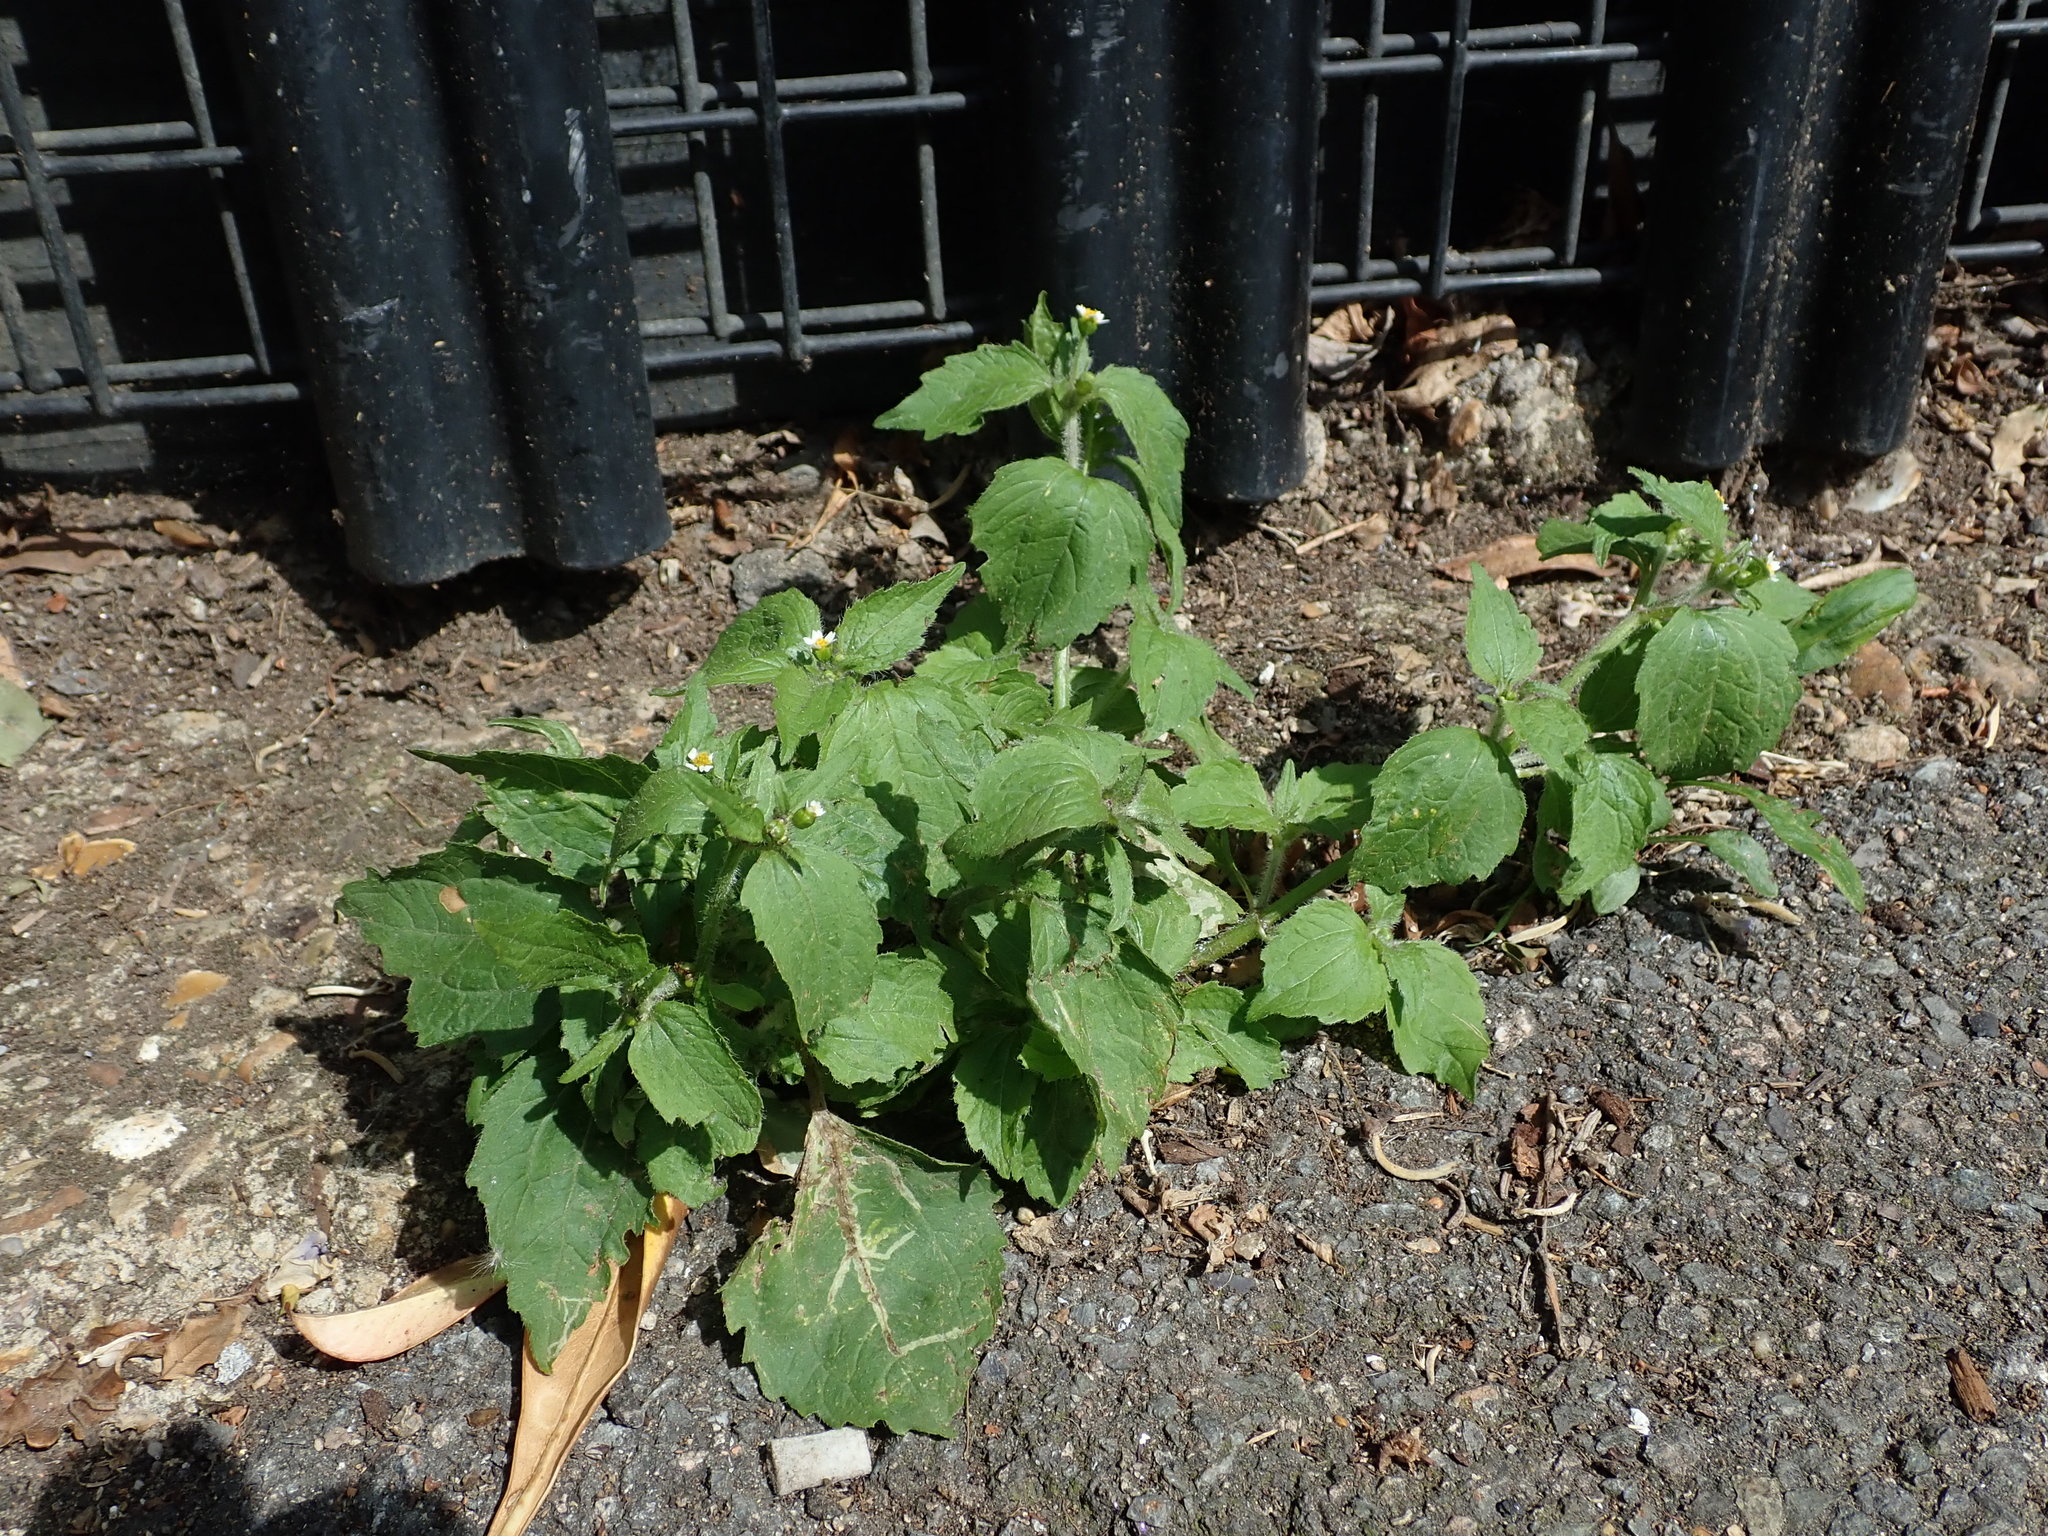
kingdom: Plantae
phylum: Tracheophyta
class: Magnoliopsida
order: Asterales
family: Asteraceae
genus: Galinsoga
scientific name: Galinsoga quadriradiata
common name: Shaggy soldier
